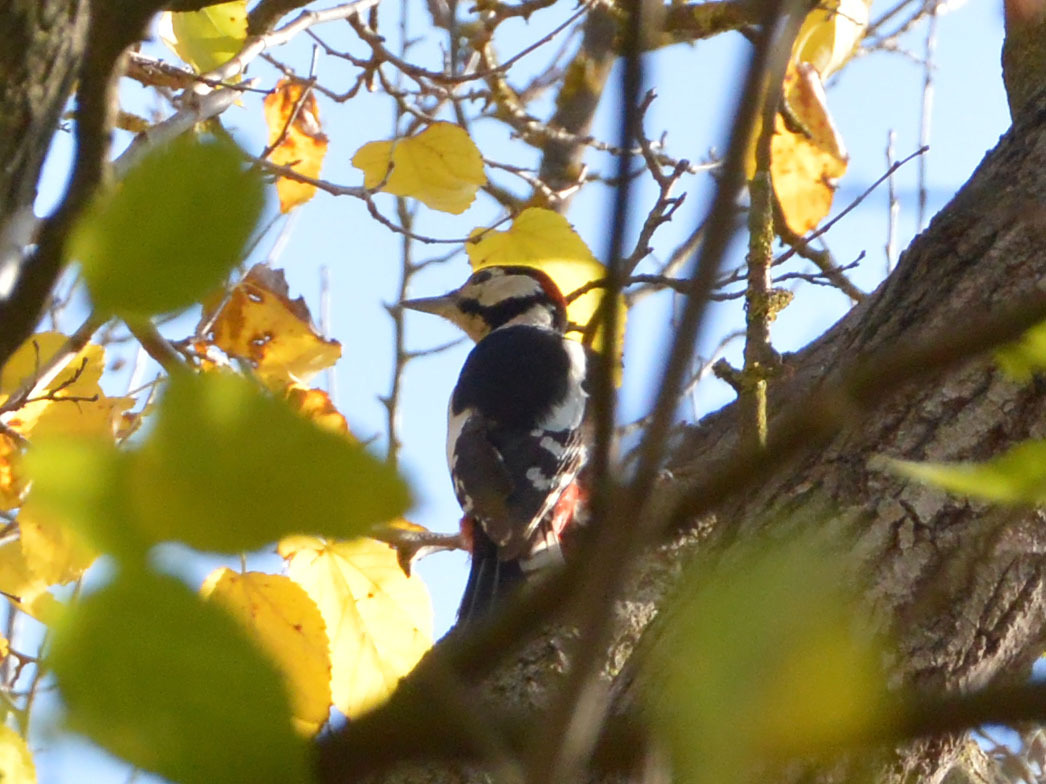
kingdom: Animalia
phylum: Chordata
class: Aves
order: Piciformes
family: Picidae
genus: Dendrocopos
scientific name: Dendrocopos major
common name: Great spotted woodpecker
